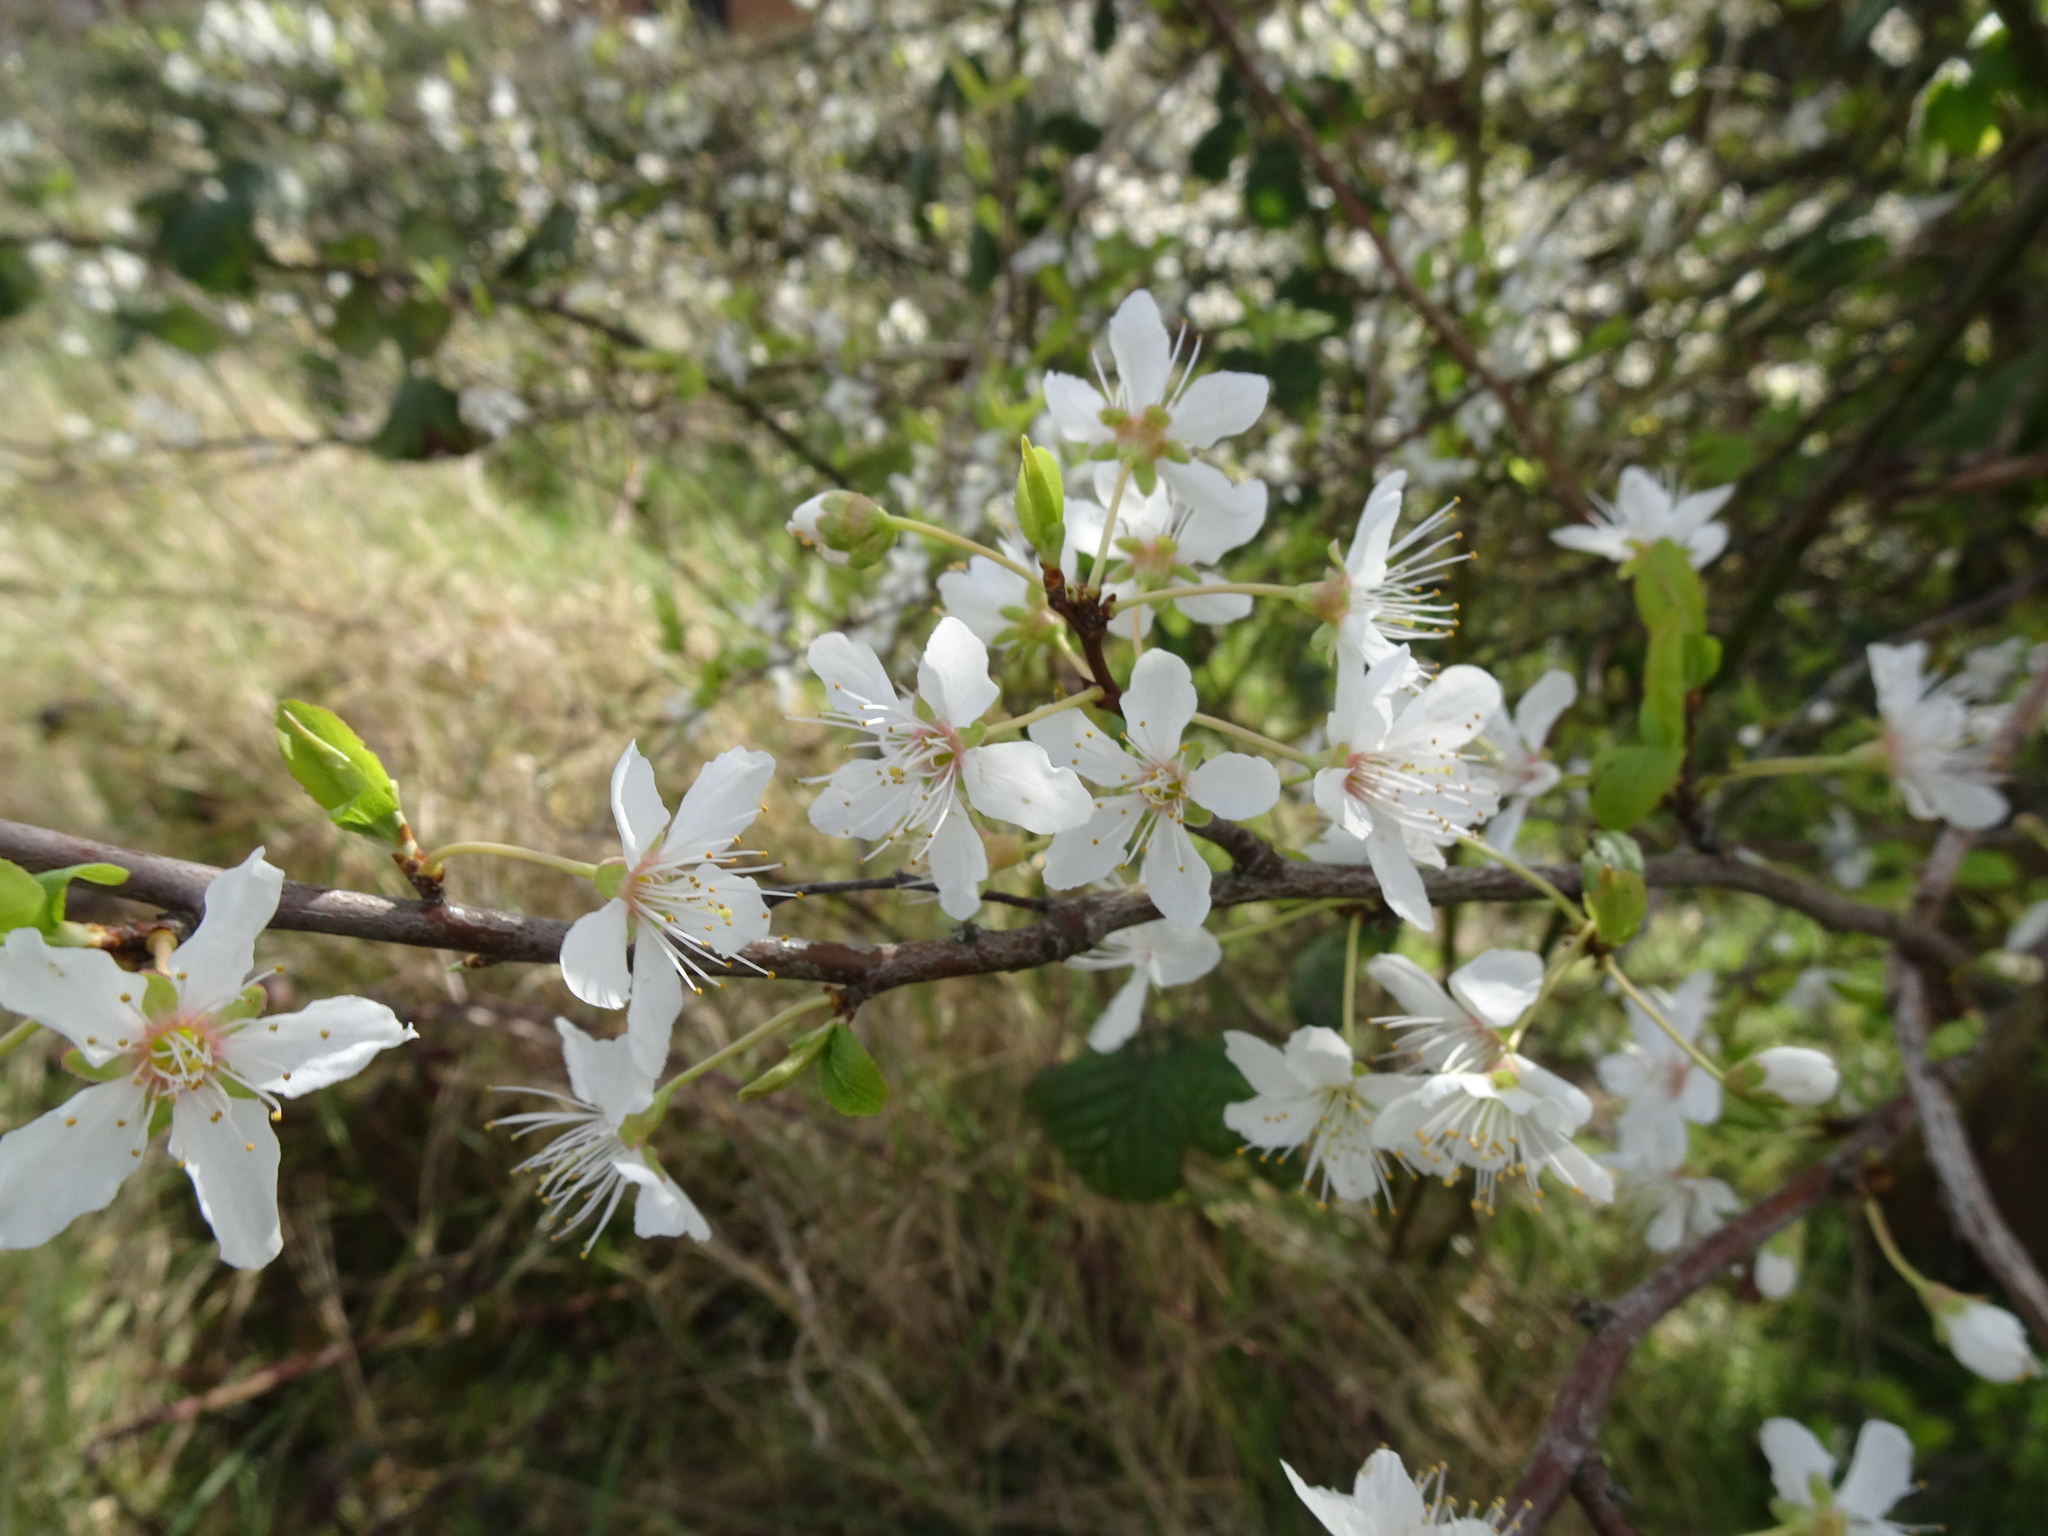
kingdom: Plantae
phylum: Tracheophyta
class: Magnoliopsida
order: Rosales
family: Rosaceae
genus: Prunus
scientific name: Prunus cerasifera
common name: Cherry plum
